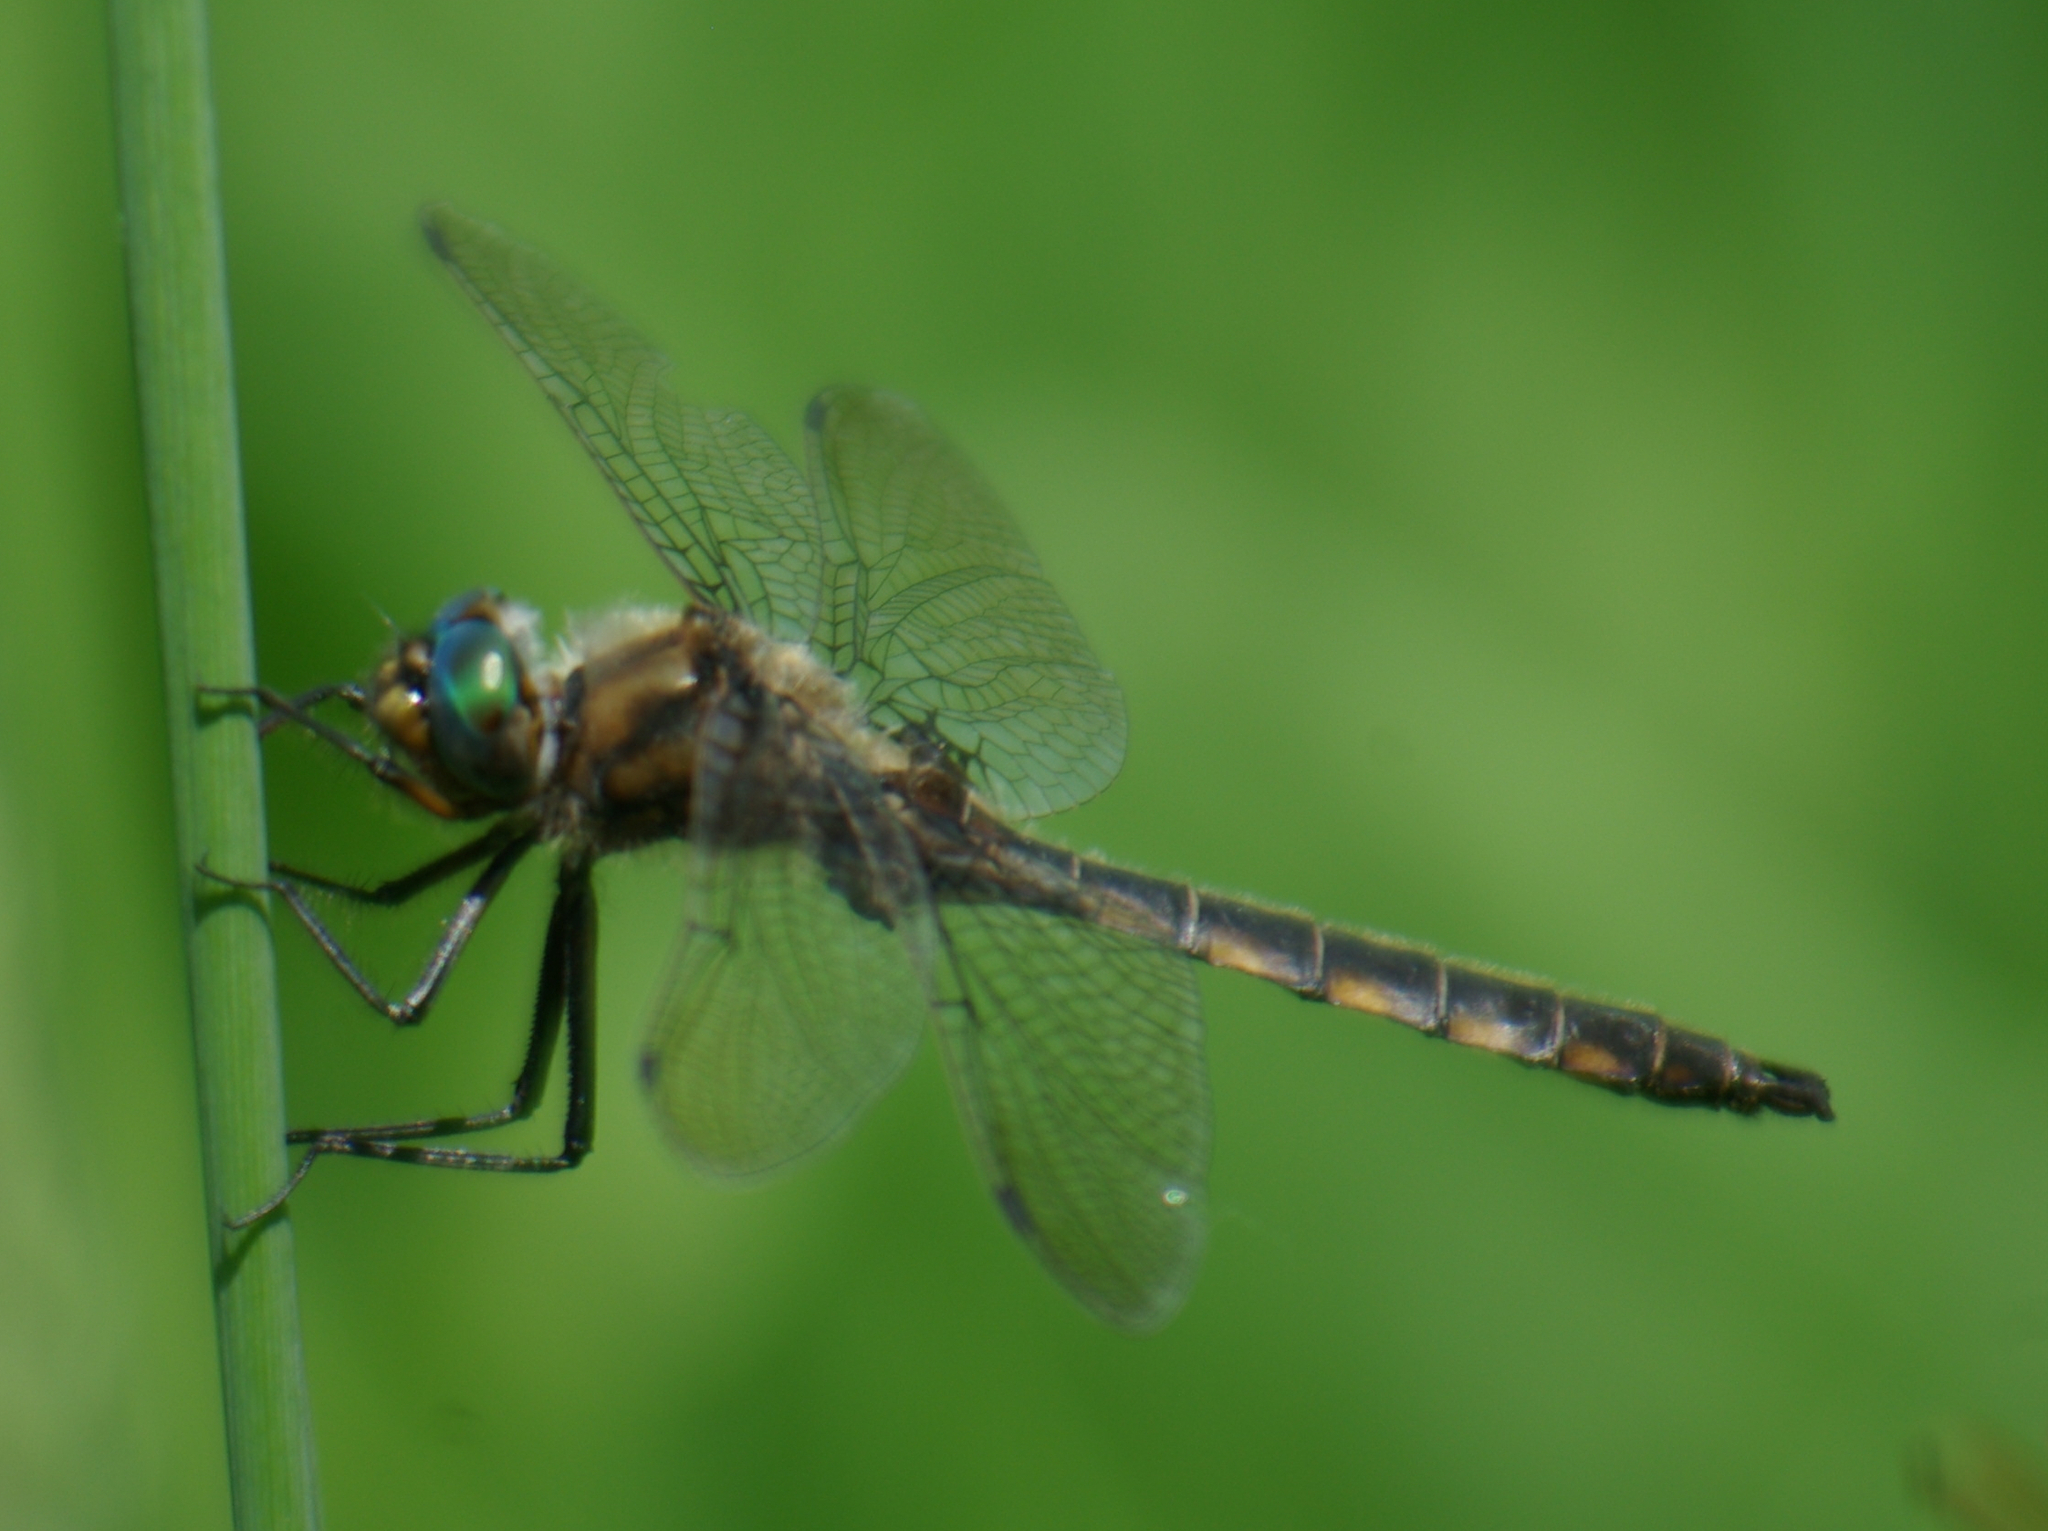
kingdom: Animalia
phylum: Arthropoda
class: Insecta
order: Odonata
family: Corduliidae
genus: Epitheca
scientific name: Epitheca canis
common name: Beaverpond baskettail
